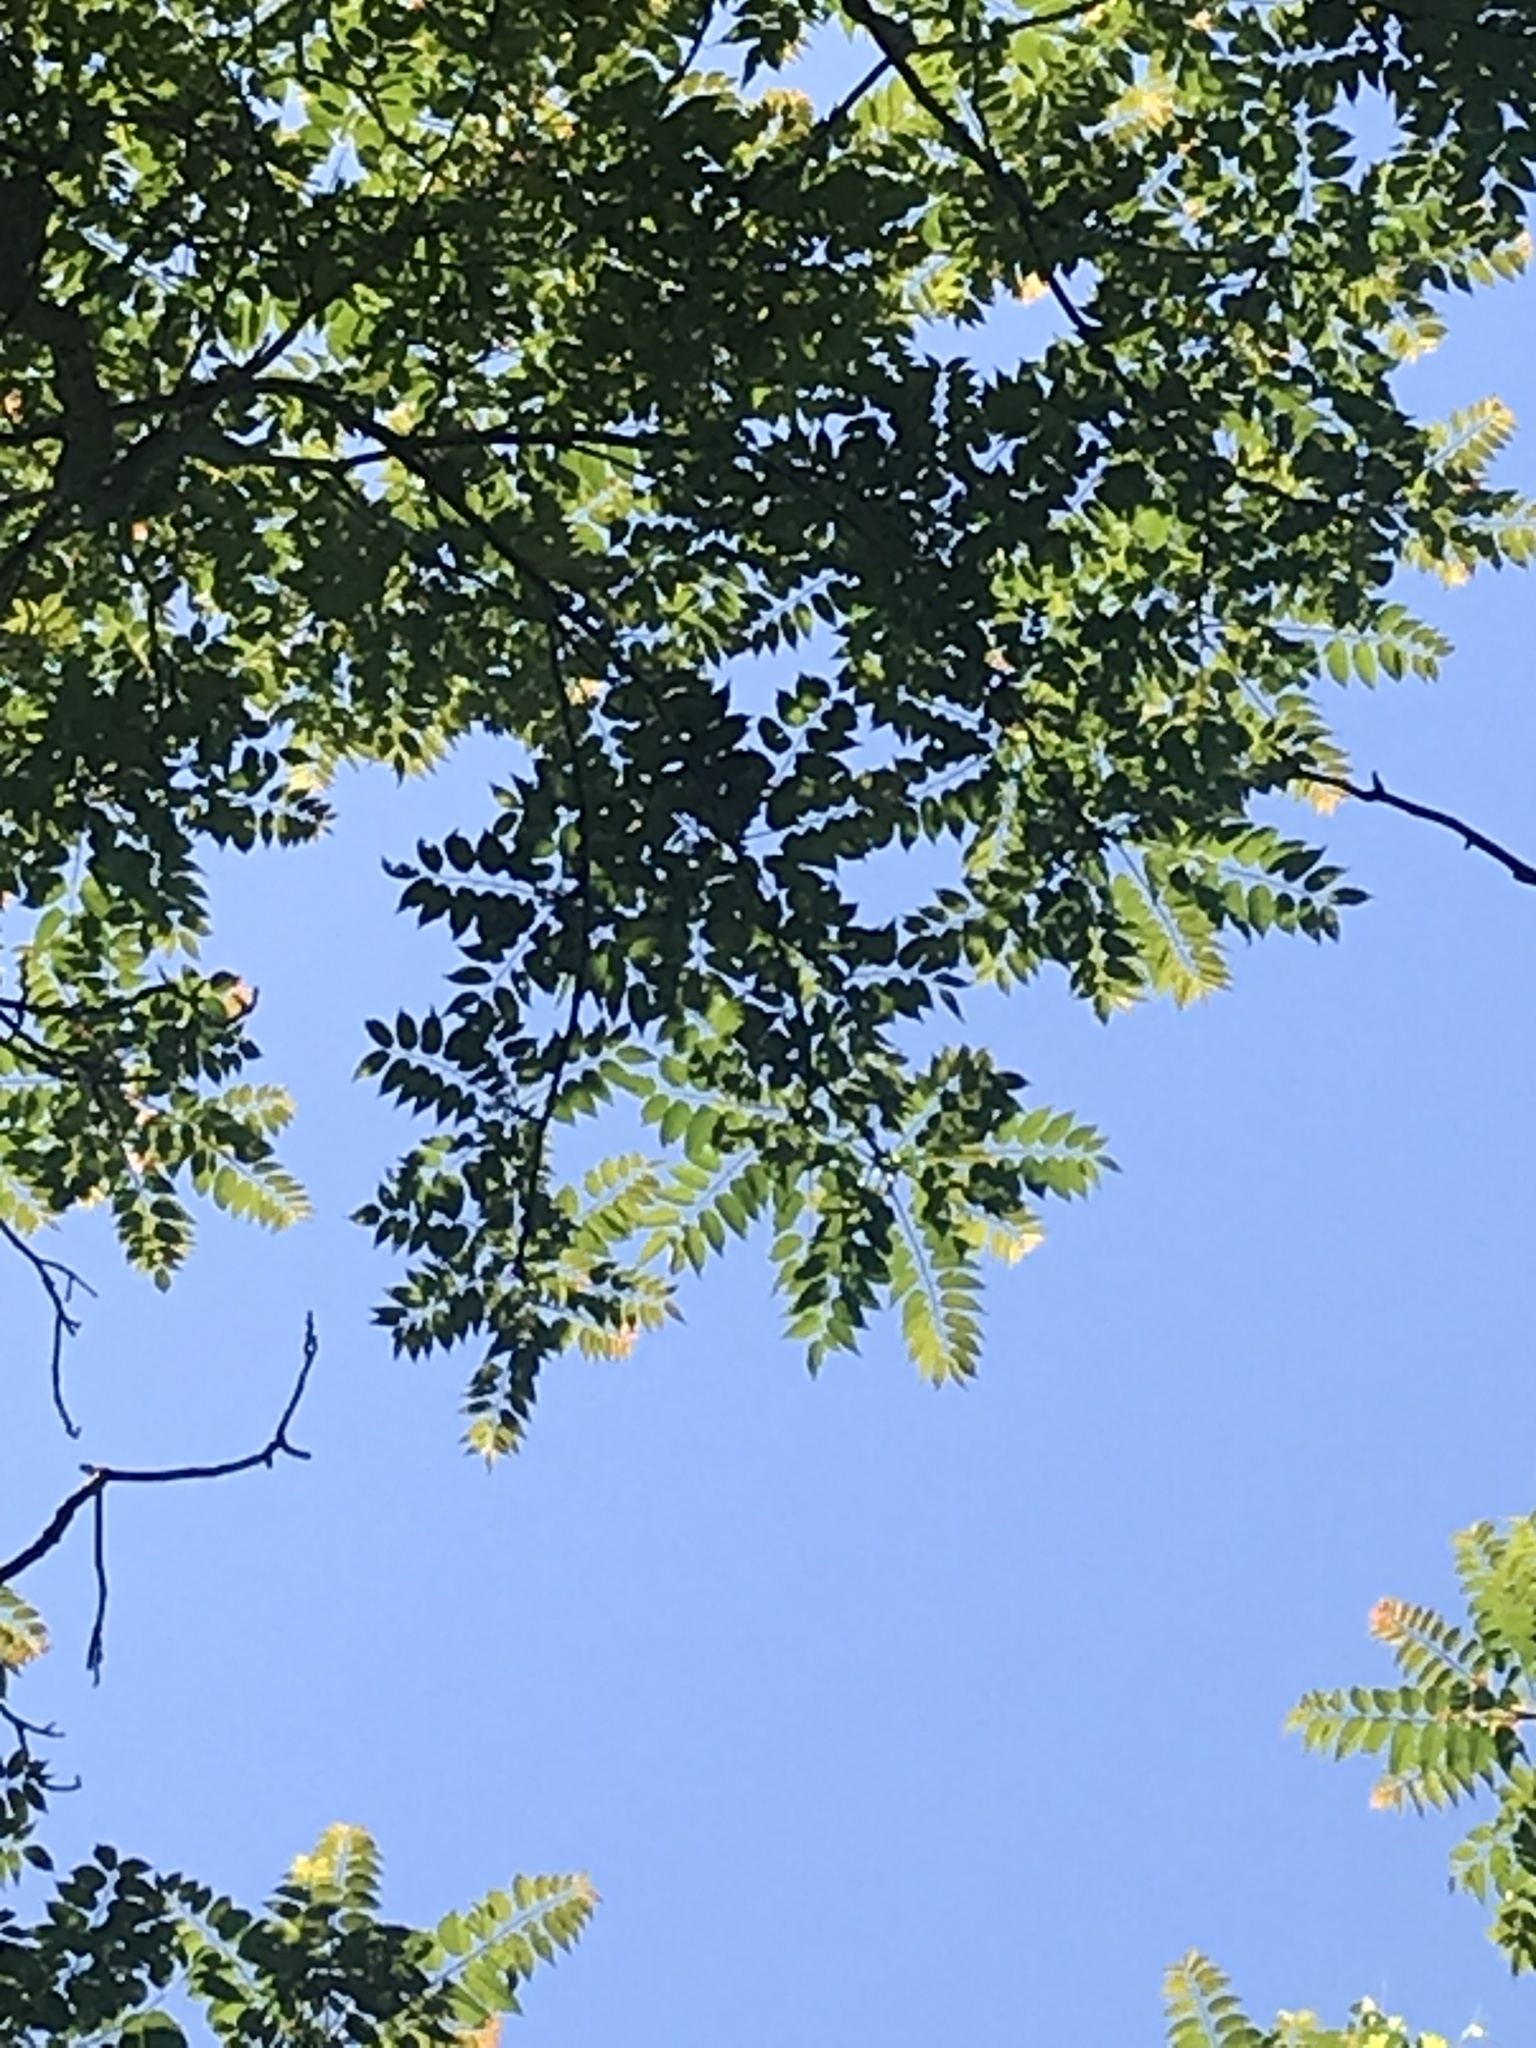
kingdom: Plantae
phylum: Tracheophyta
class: Magnoliopsida
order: Sapindales
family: Simaroubaceae
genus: Ailanthus
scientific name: Ailanthus altissima
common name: Tree-of-heaven
